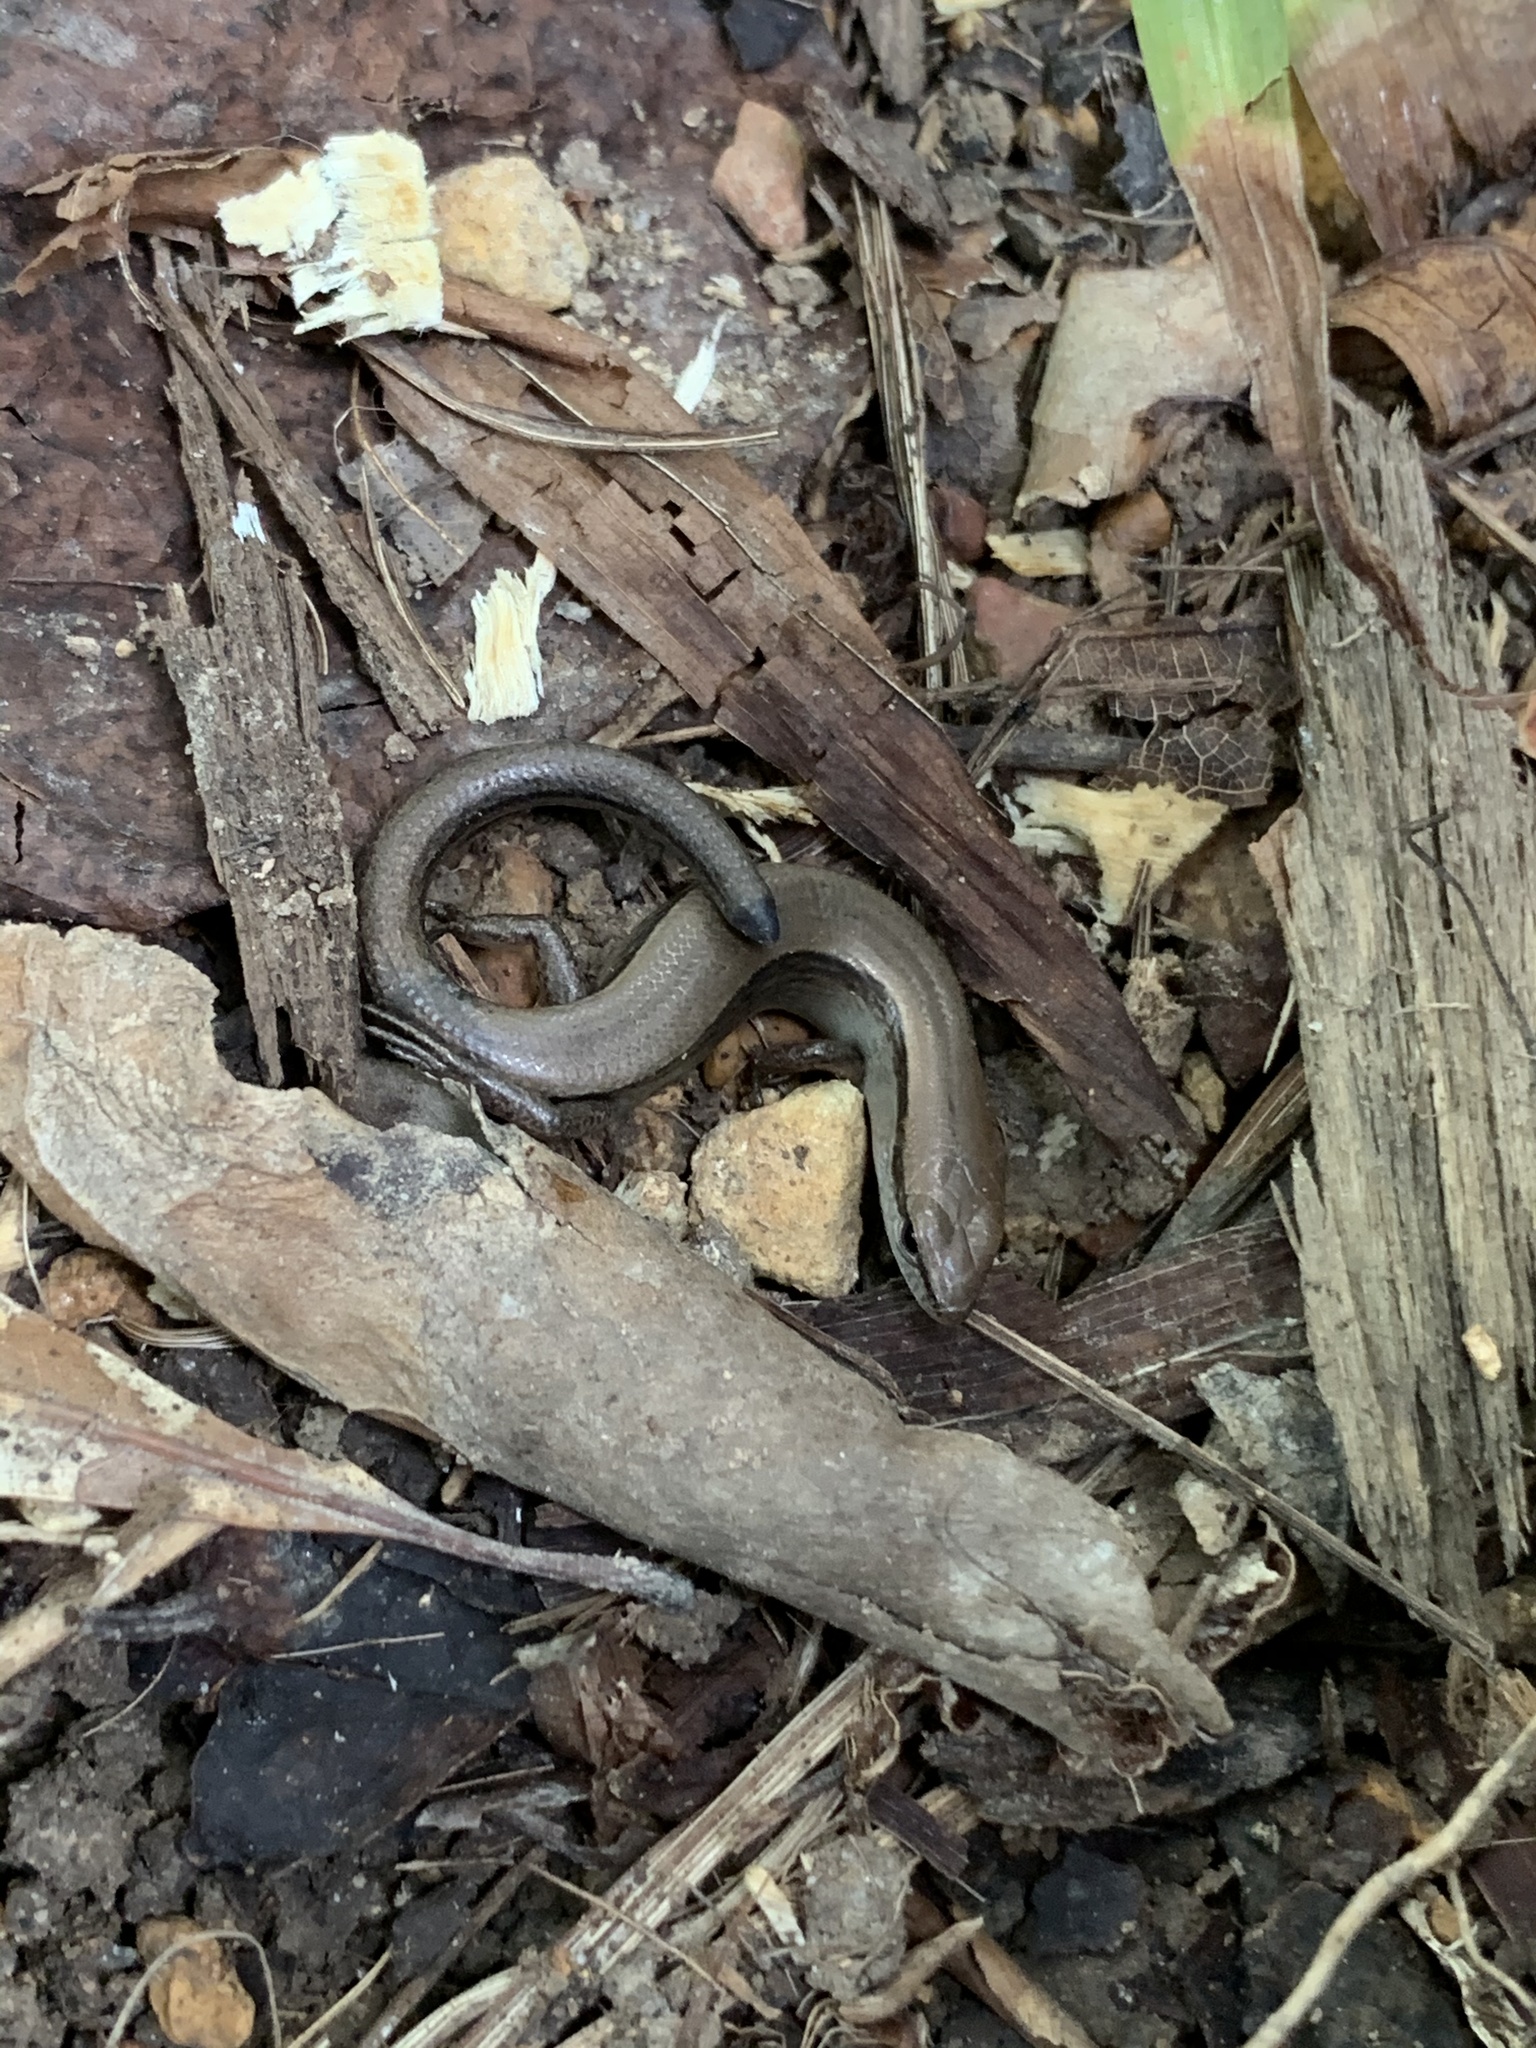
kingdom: Animalia
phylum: Chordata
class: Squamata
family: Scincidae
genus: Scincella
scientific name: Scincella lateralis
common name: Ground skink
